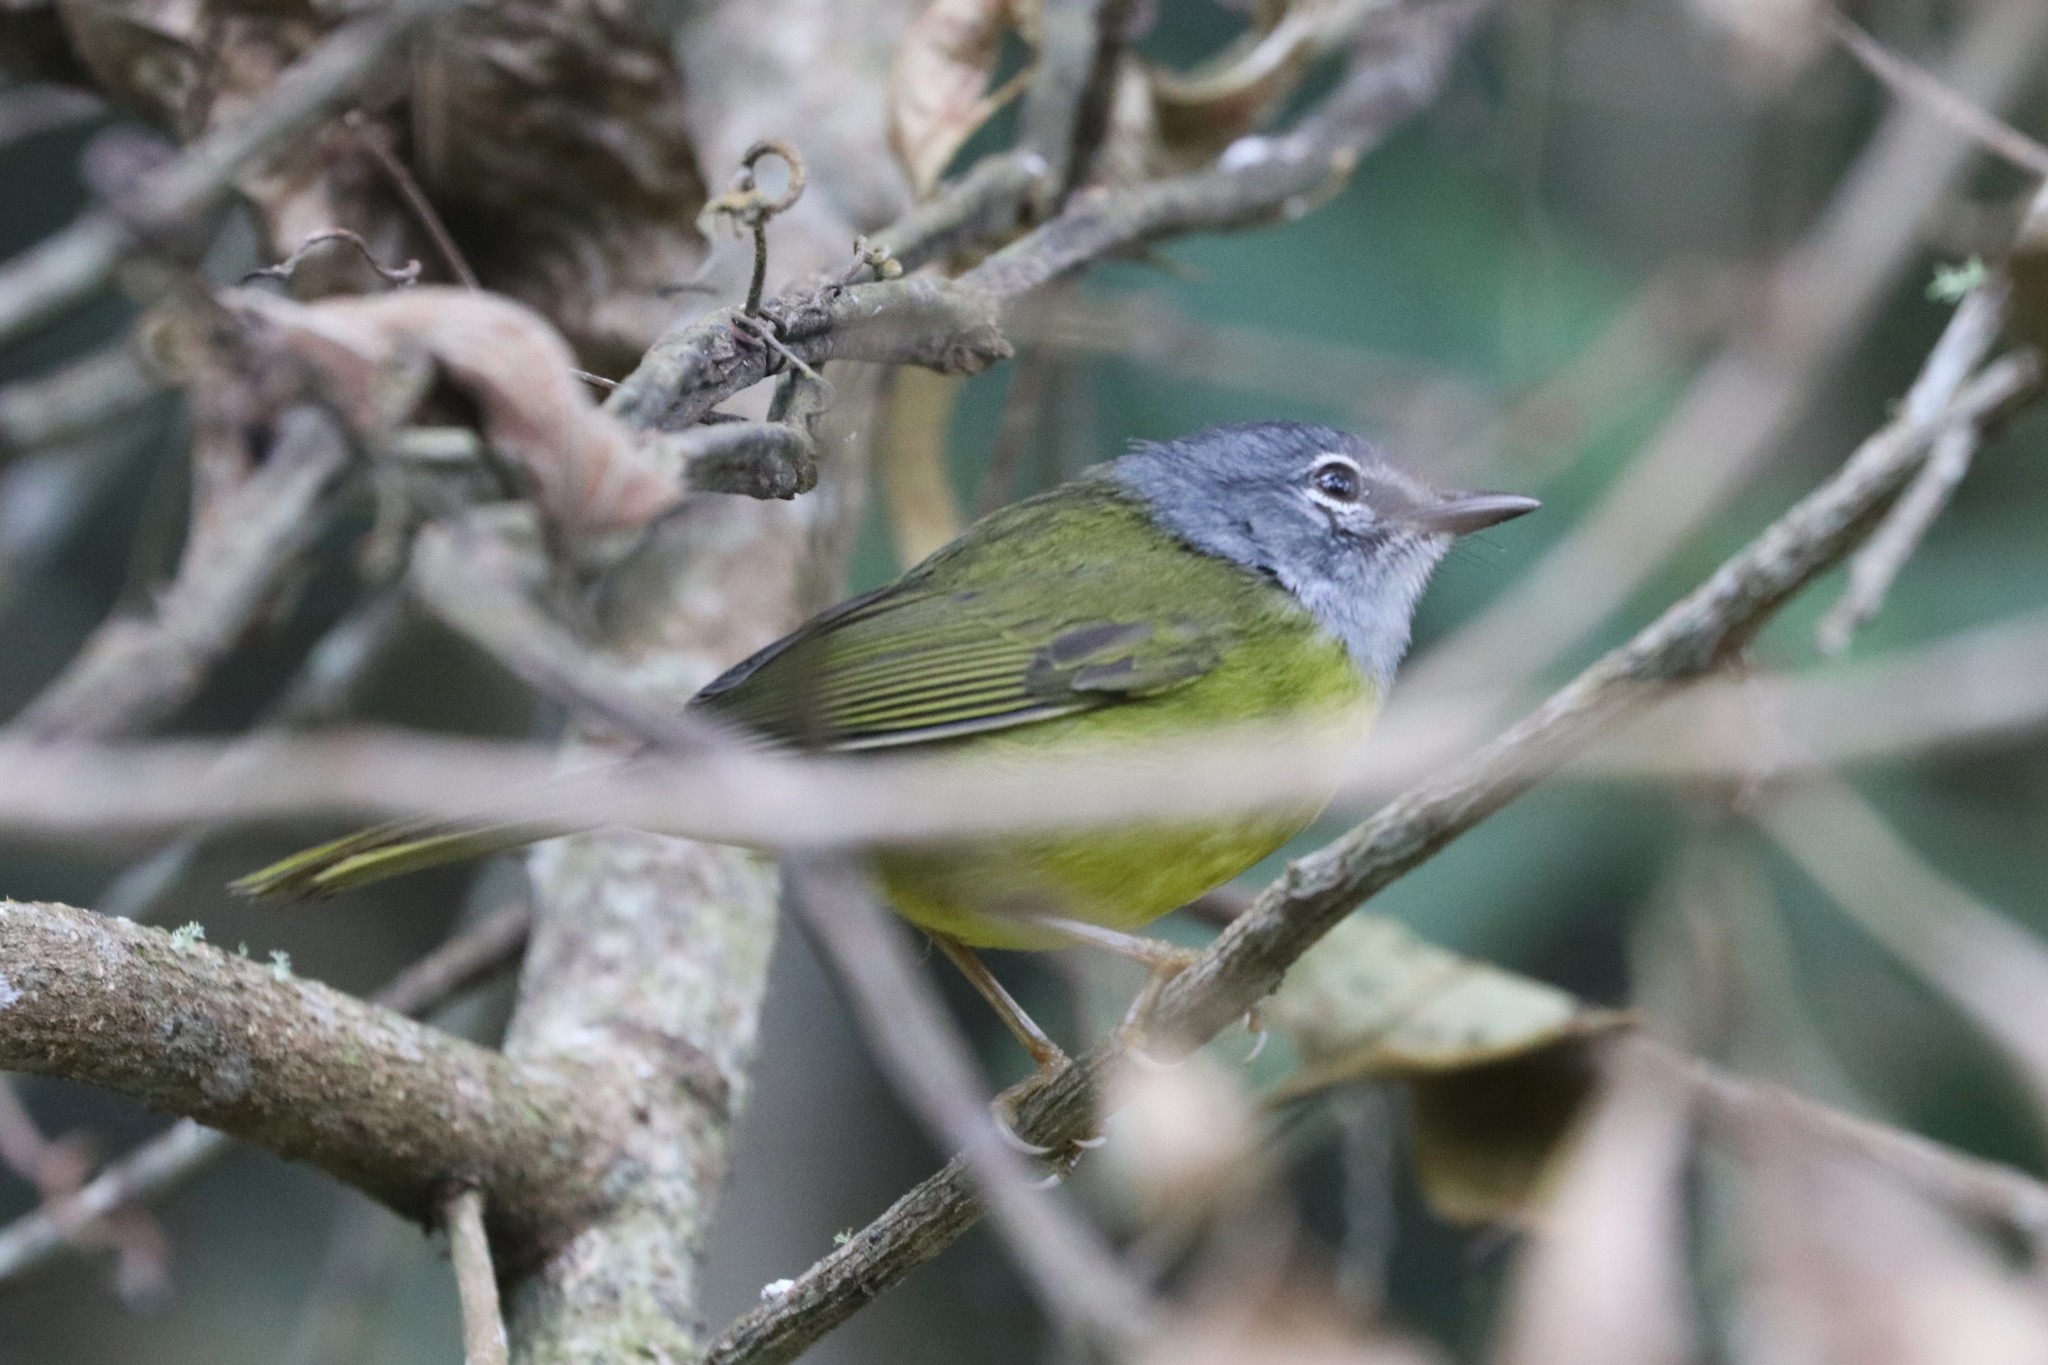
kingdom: Animalia
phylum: Chordata
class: Aves
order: Passeriformes
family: Parulidae
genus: Myiothlypis
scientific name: Myiothlypis conspicillata
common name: White-lored warbler
